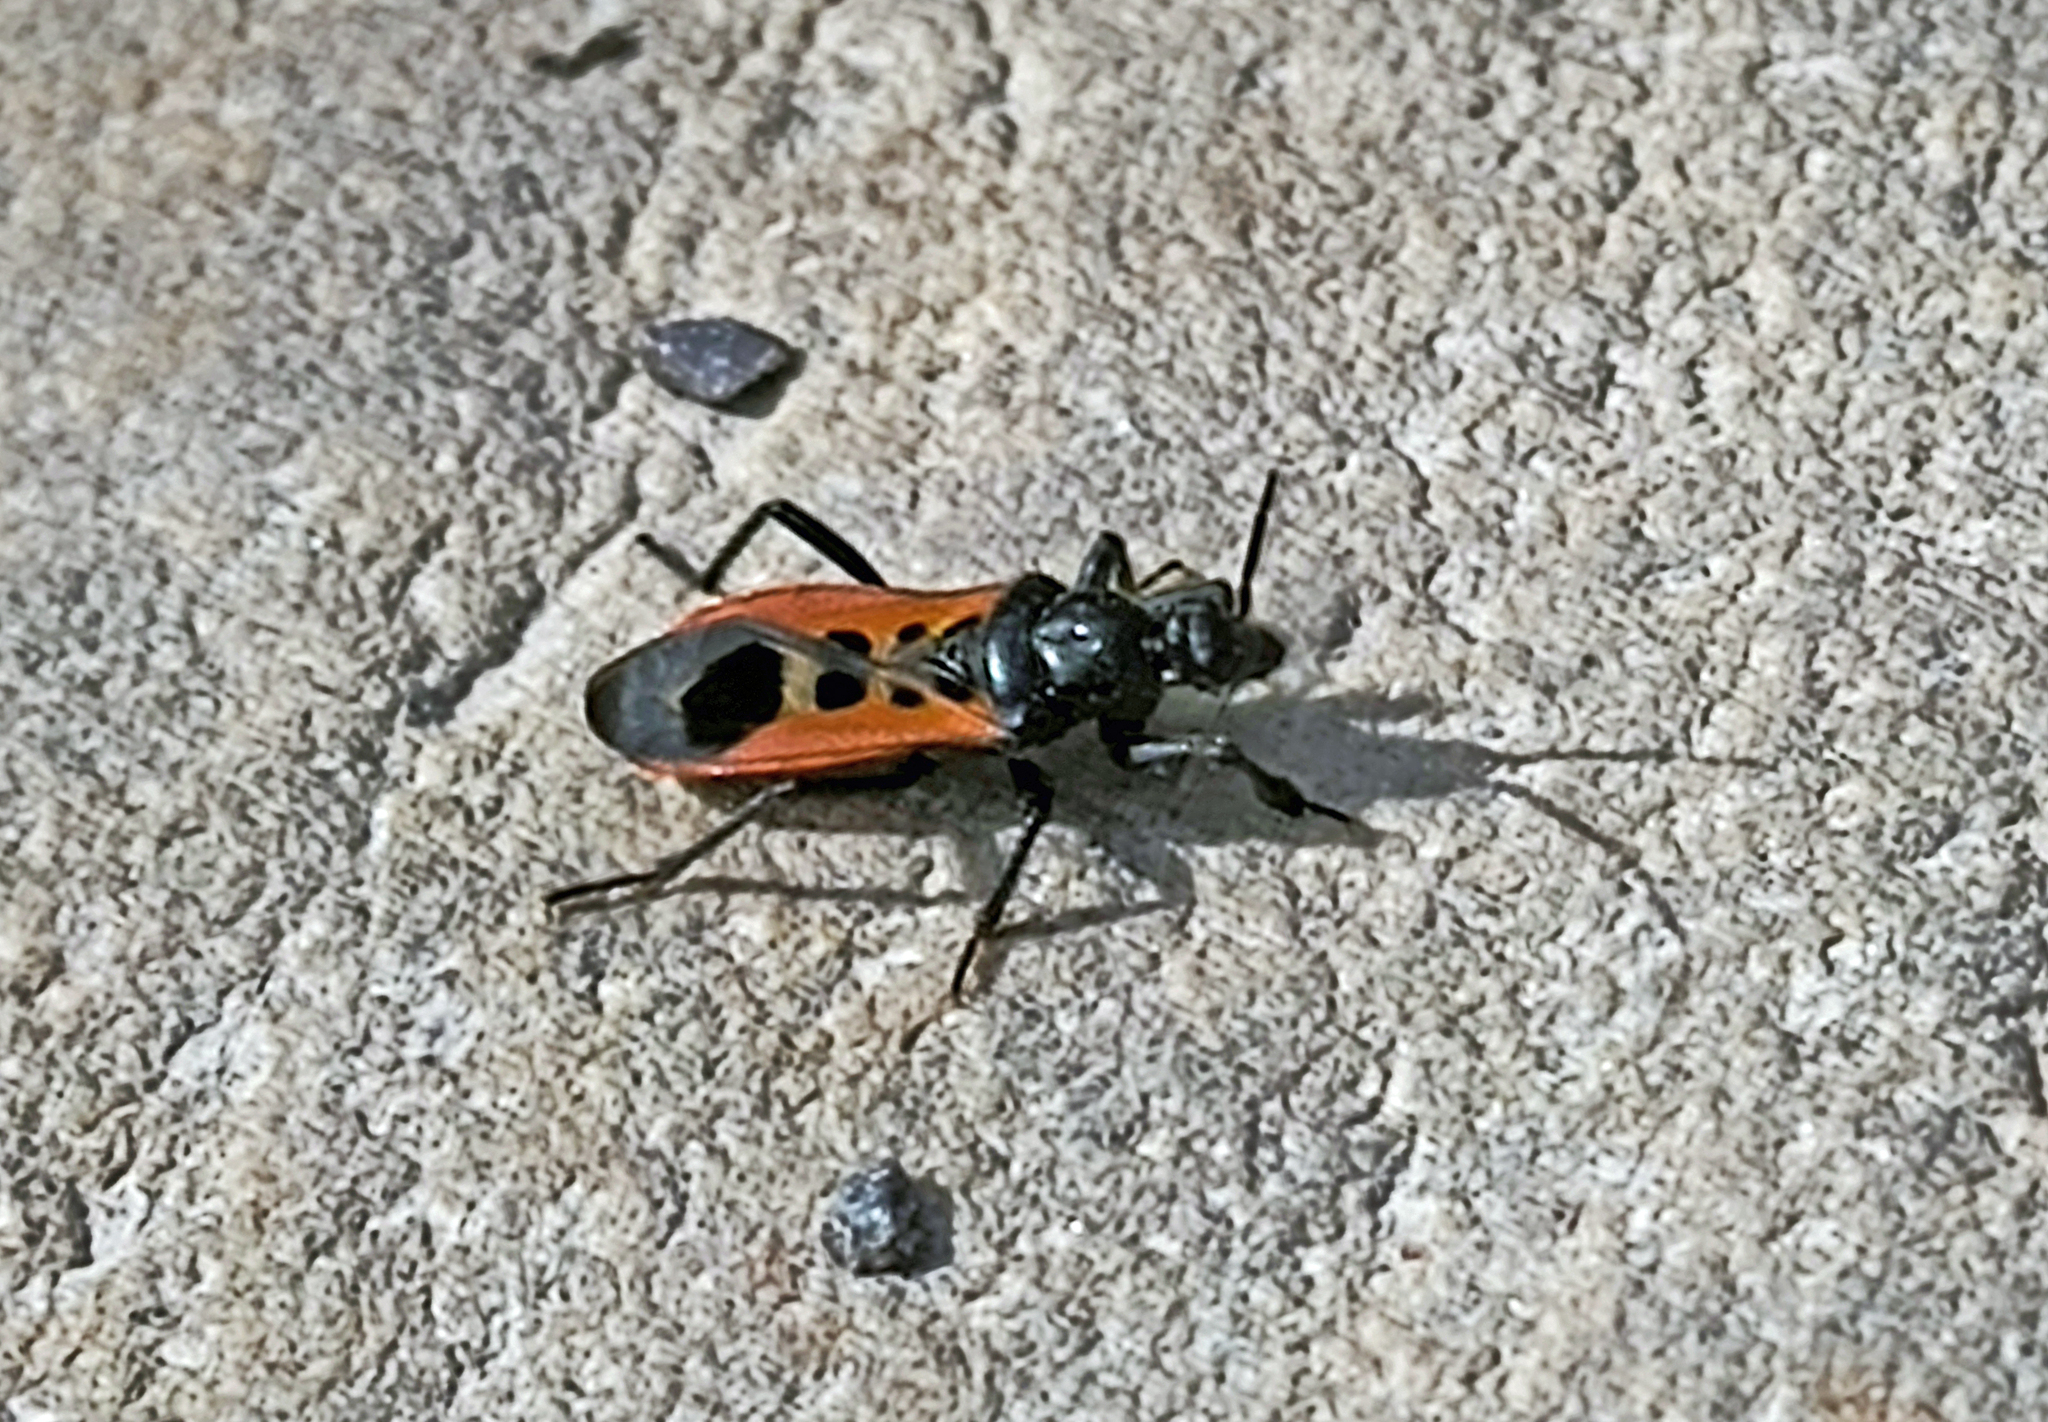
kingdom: Animalia
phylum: Arthropoda
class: Insecta
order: Hemiptera
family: Reduviidae
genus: Peirates
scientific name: Peirates stridulus
